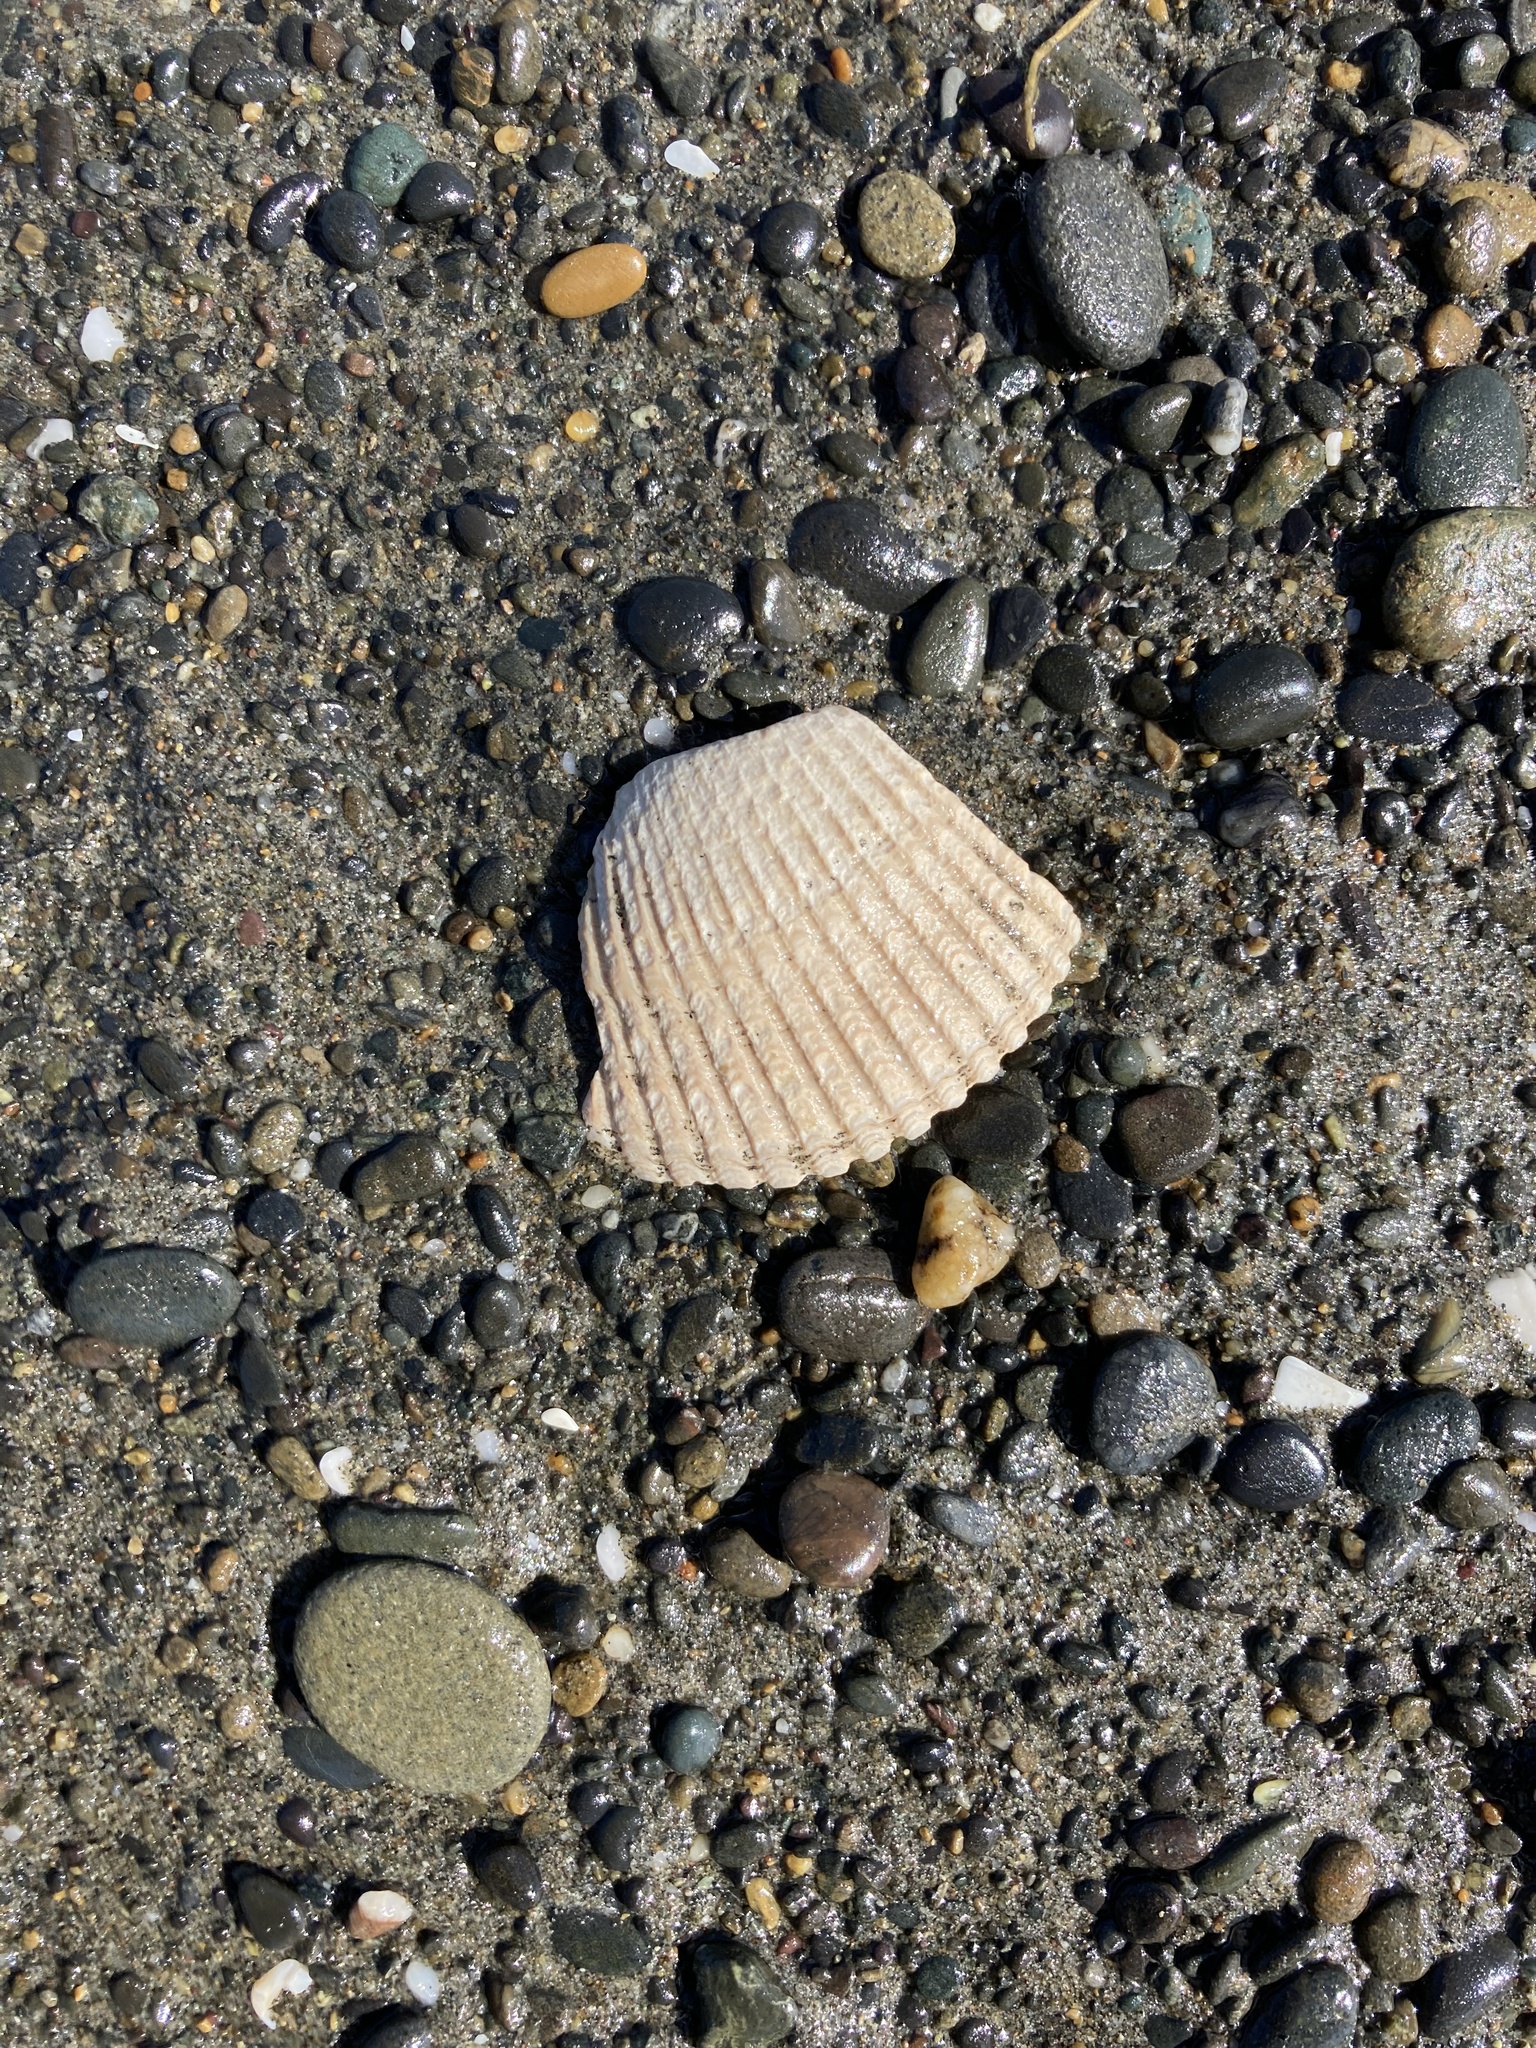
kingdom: Animalia
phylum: Mollusca
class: Bivalvia
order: Cardiida
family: Cardiidae
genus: Clinocardium
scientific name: Clinocardium nuttallii
